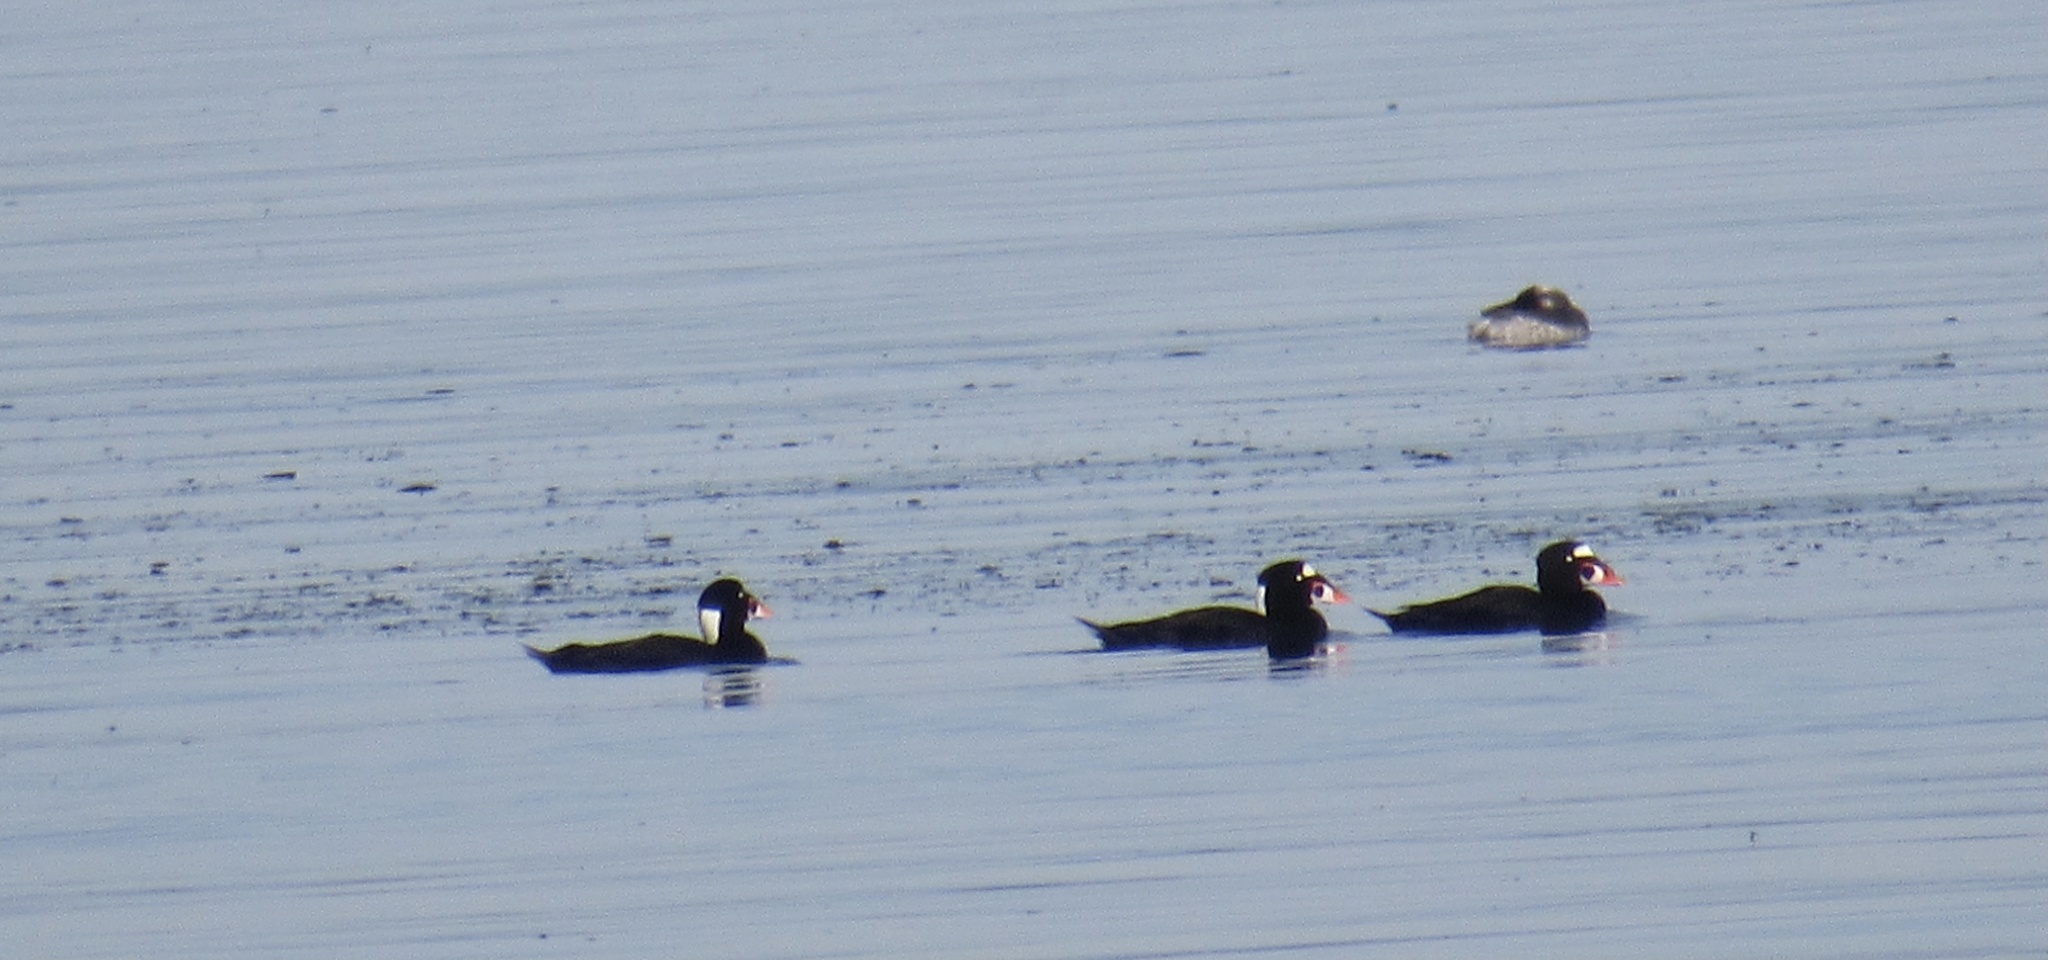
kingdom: Animalia
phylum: Chordata
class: Aves
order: Anseriformes
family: Anatidae
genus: Melanitta
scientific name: Melanitta perspicillata
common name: Surf scoter
